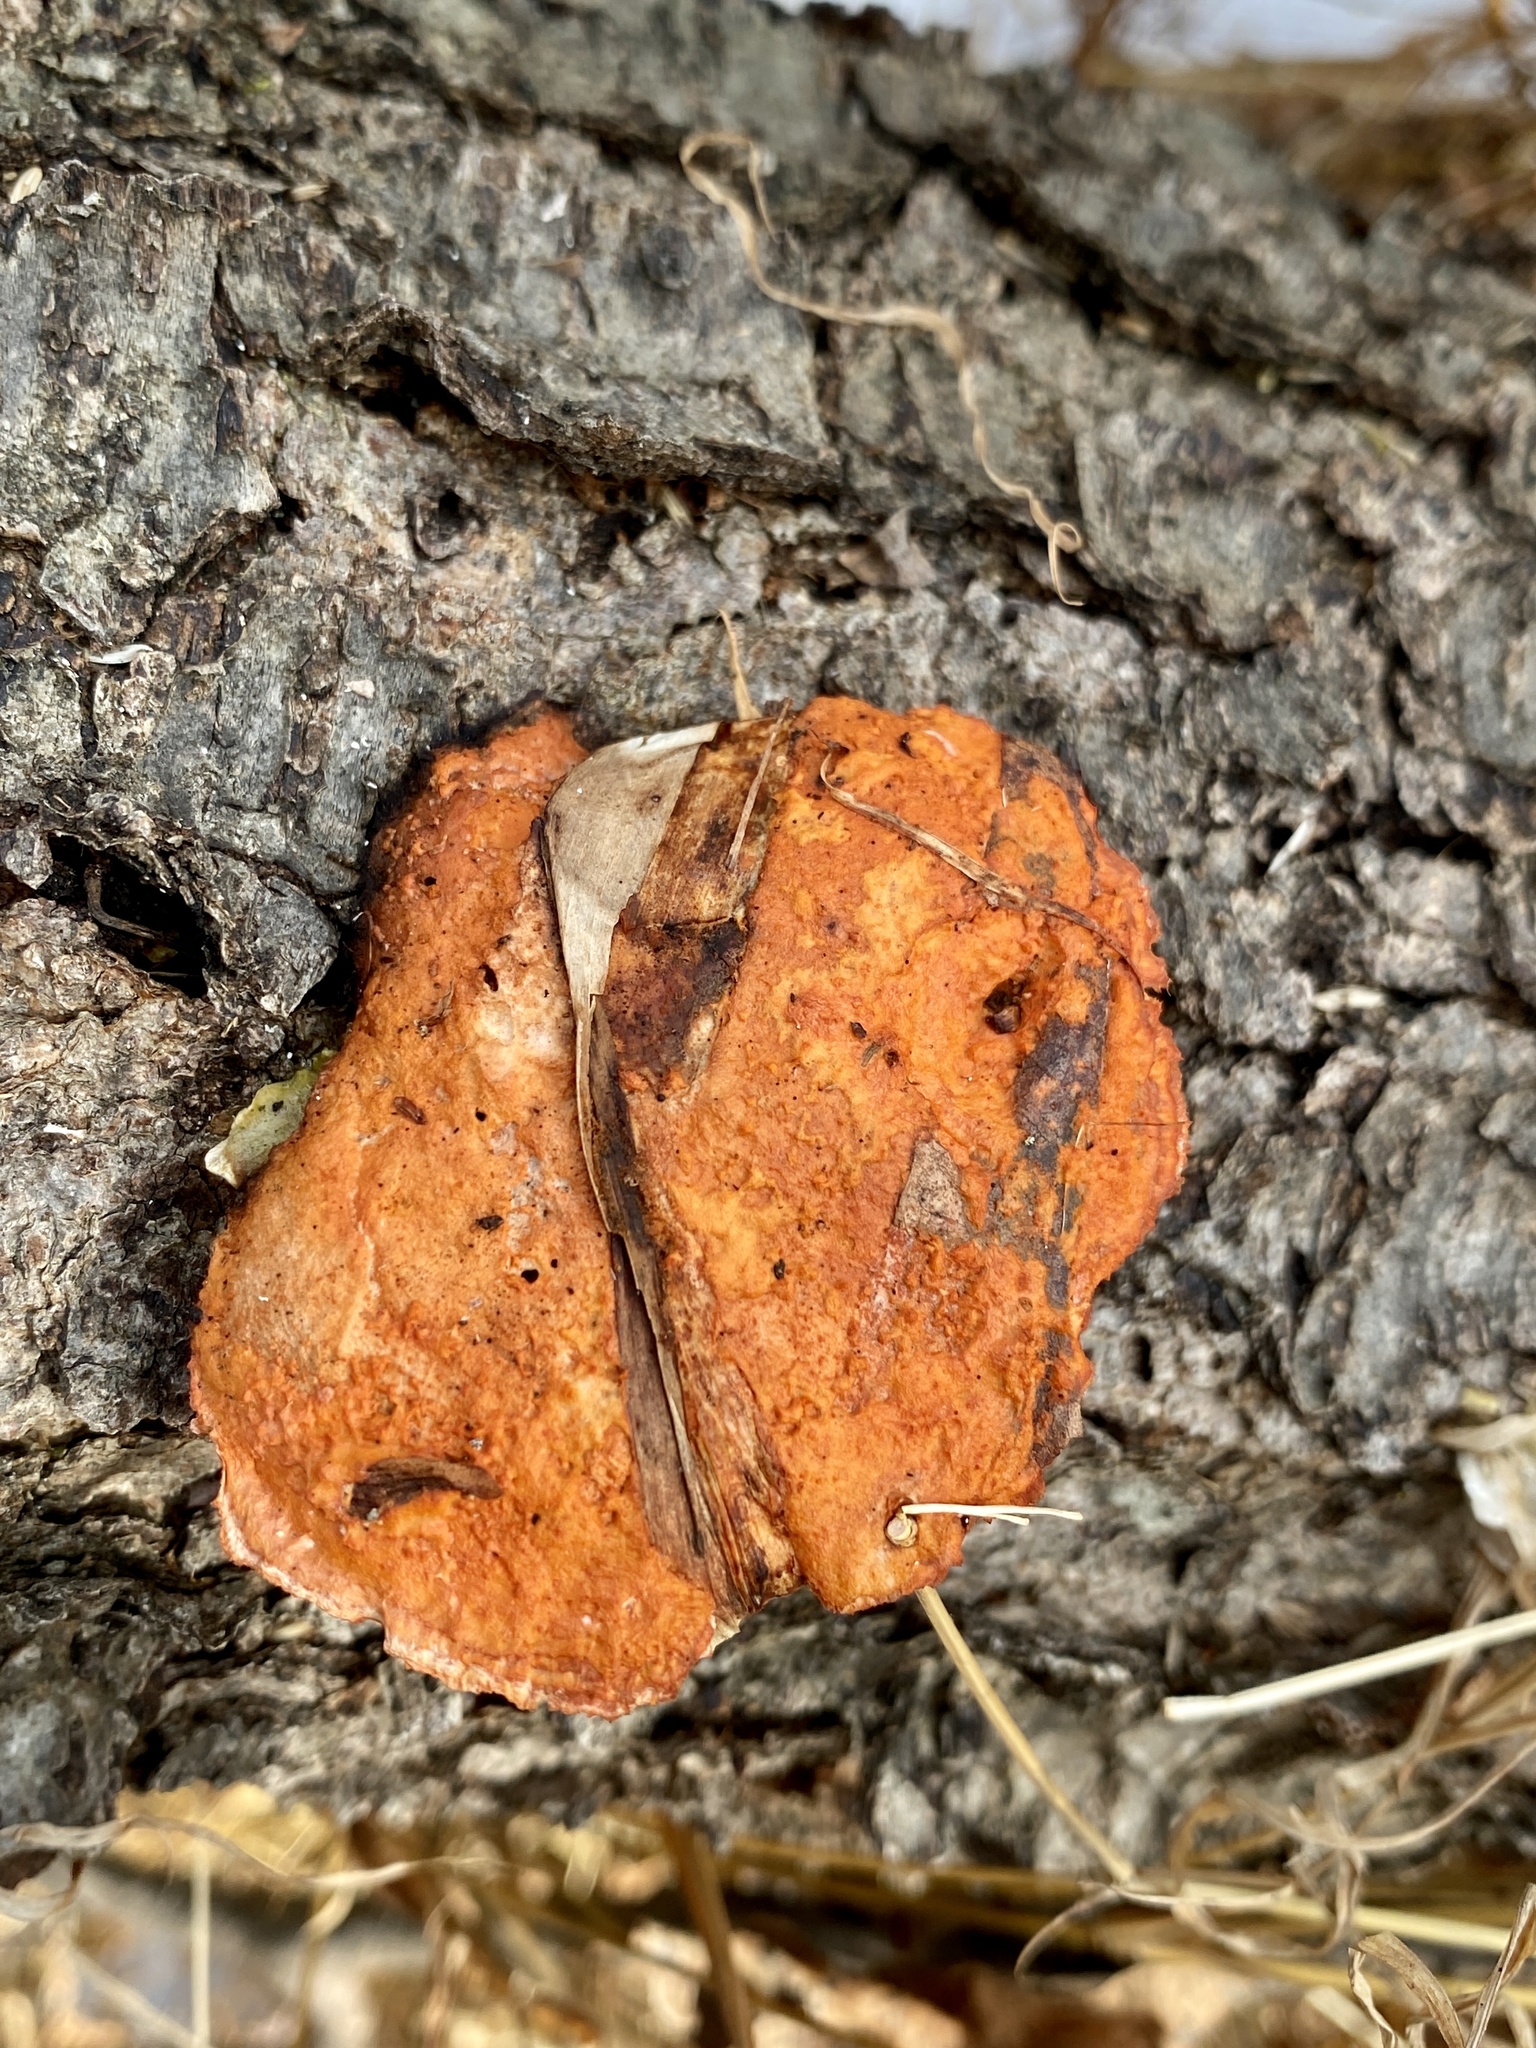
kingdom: Fungi
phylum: Basidiomycota
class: Agaricomycetes
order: Polyporales
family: Polyporaceae
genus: Trametes
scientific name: Trametes cinnabarina
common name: Northern cinnabar polypore
